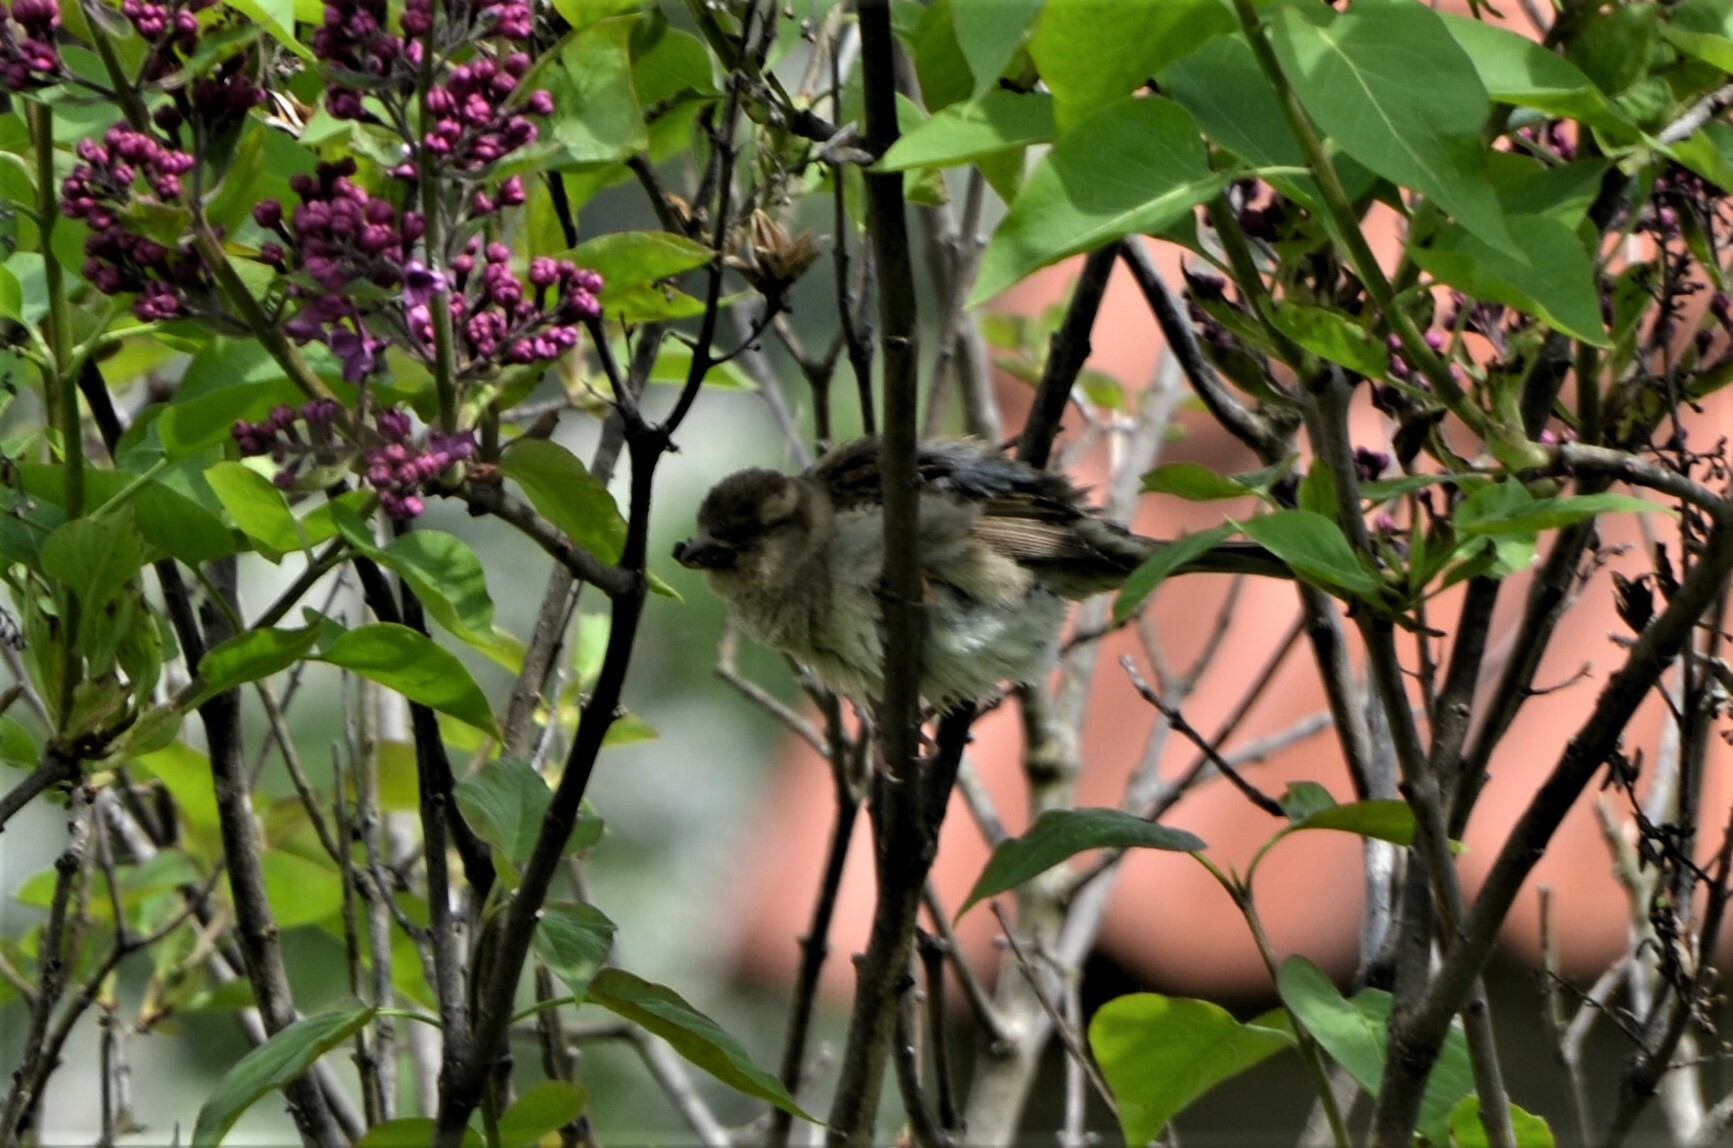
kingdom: Animalia
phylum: Chordata
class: Aves
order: Passeriformes
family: Passeridae
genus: Passer
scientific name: Passer domesticus
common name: House sparrow
